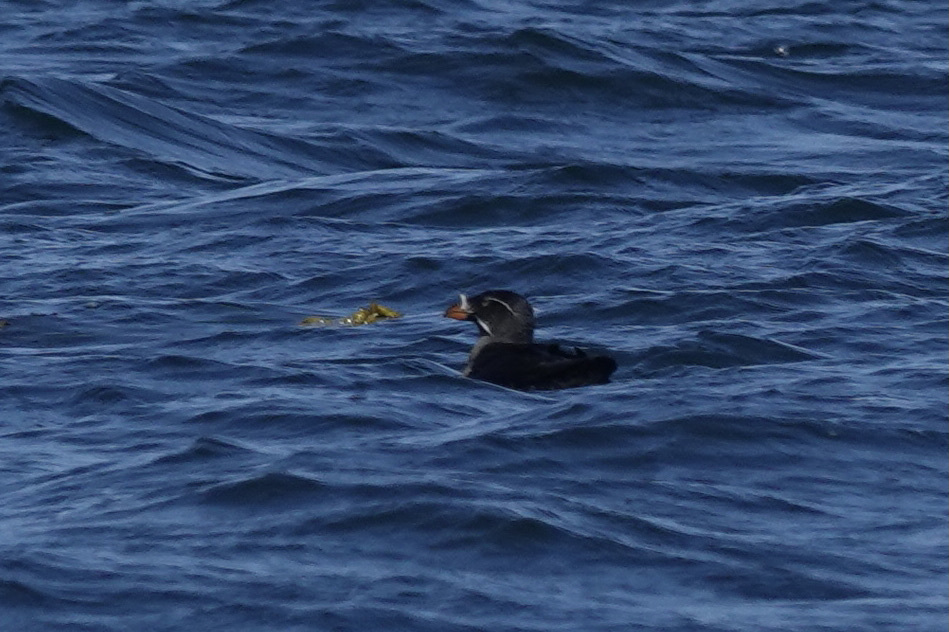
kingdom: Animalia
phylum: Chordata
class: Aves
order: Charadriiformes
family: Alcidae
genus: Cerorhinca
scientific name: Cerorhinca monocerata
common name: Rhinoceros auklet
